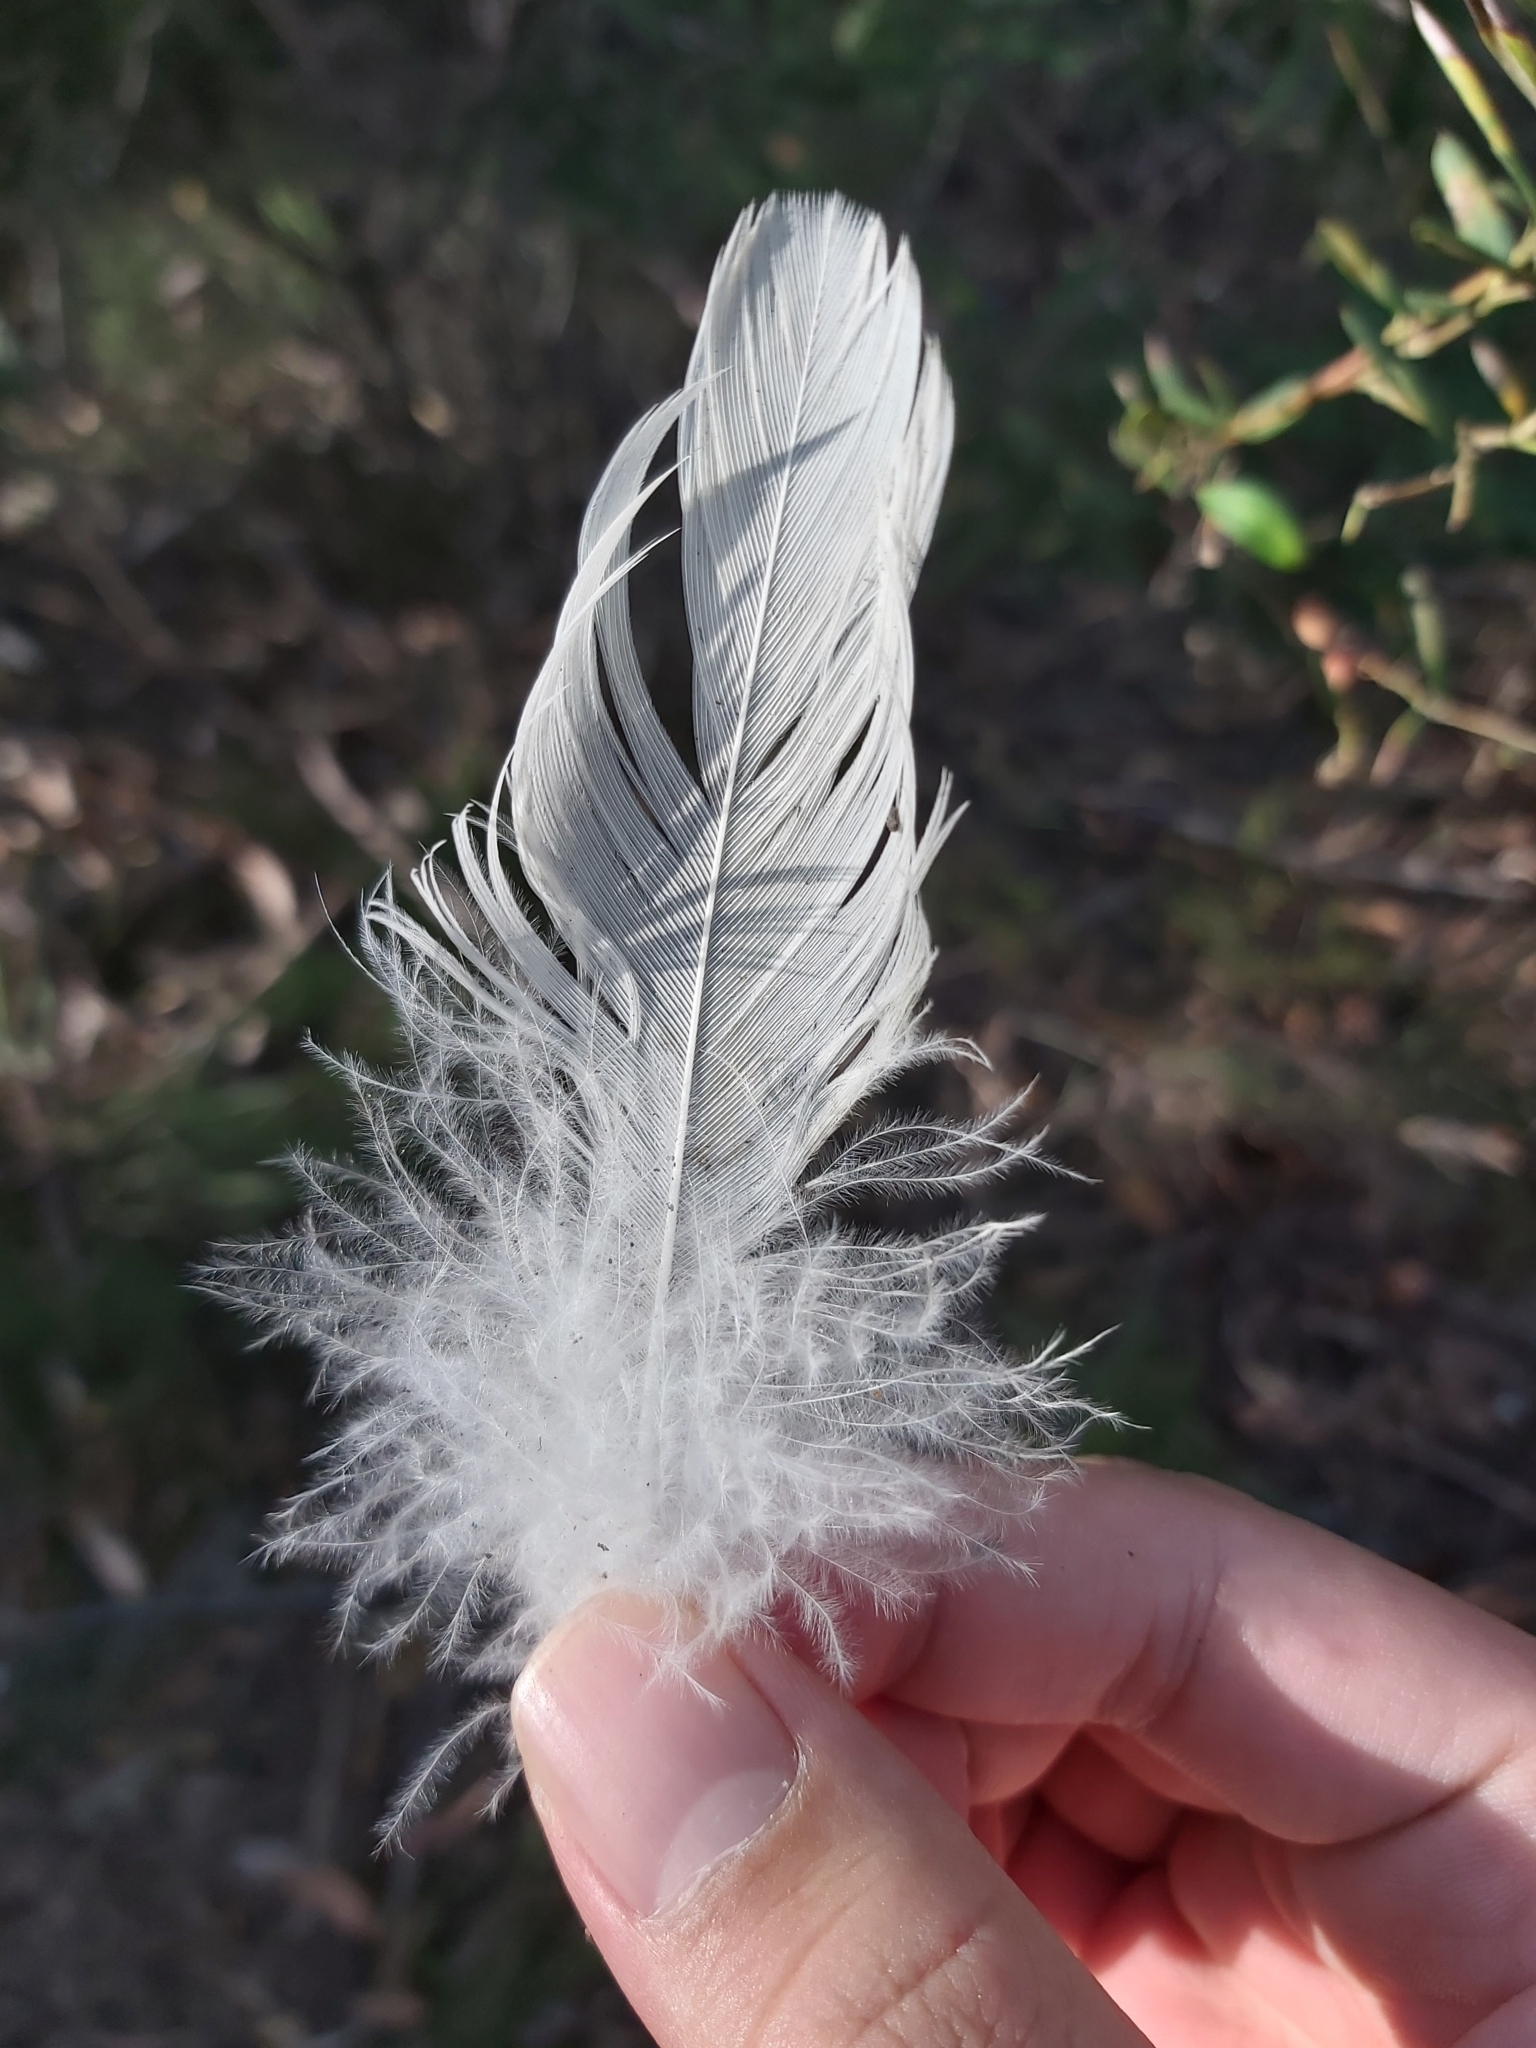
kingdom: Animalia
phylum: Chordata
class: Aves
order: Psittaciformes
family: Psittacidae
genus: Cacatua
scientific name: Cacatua galerita
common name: Sulphur-crested cockatoo
